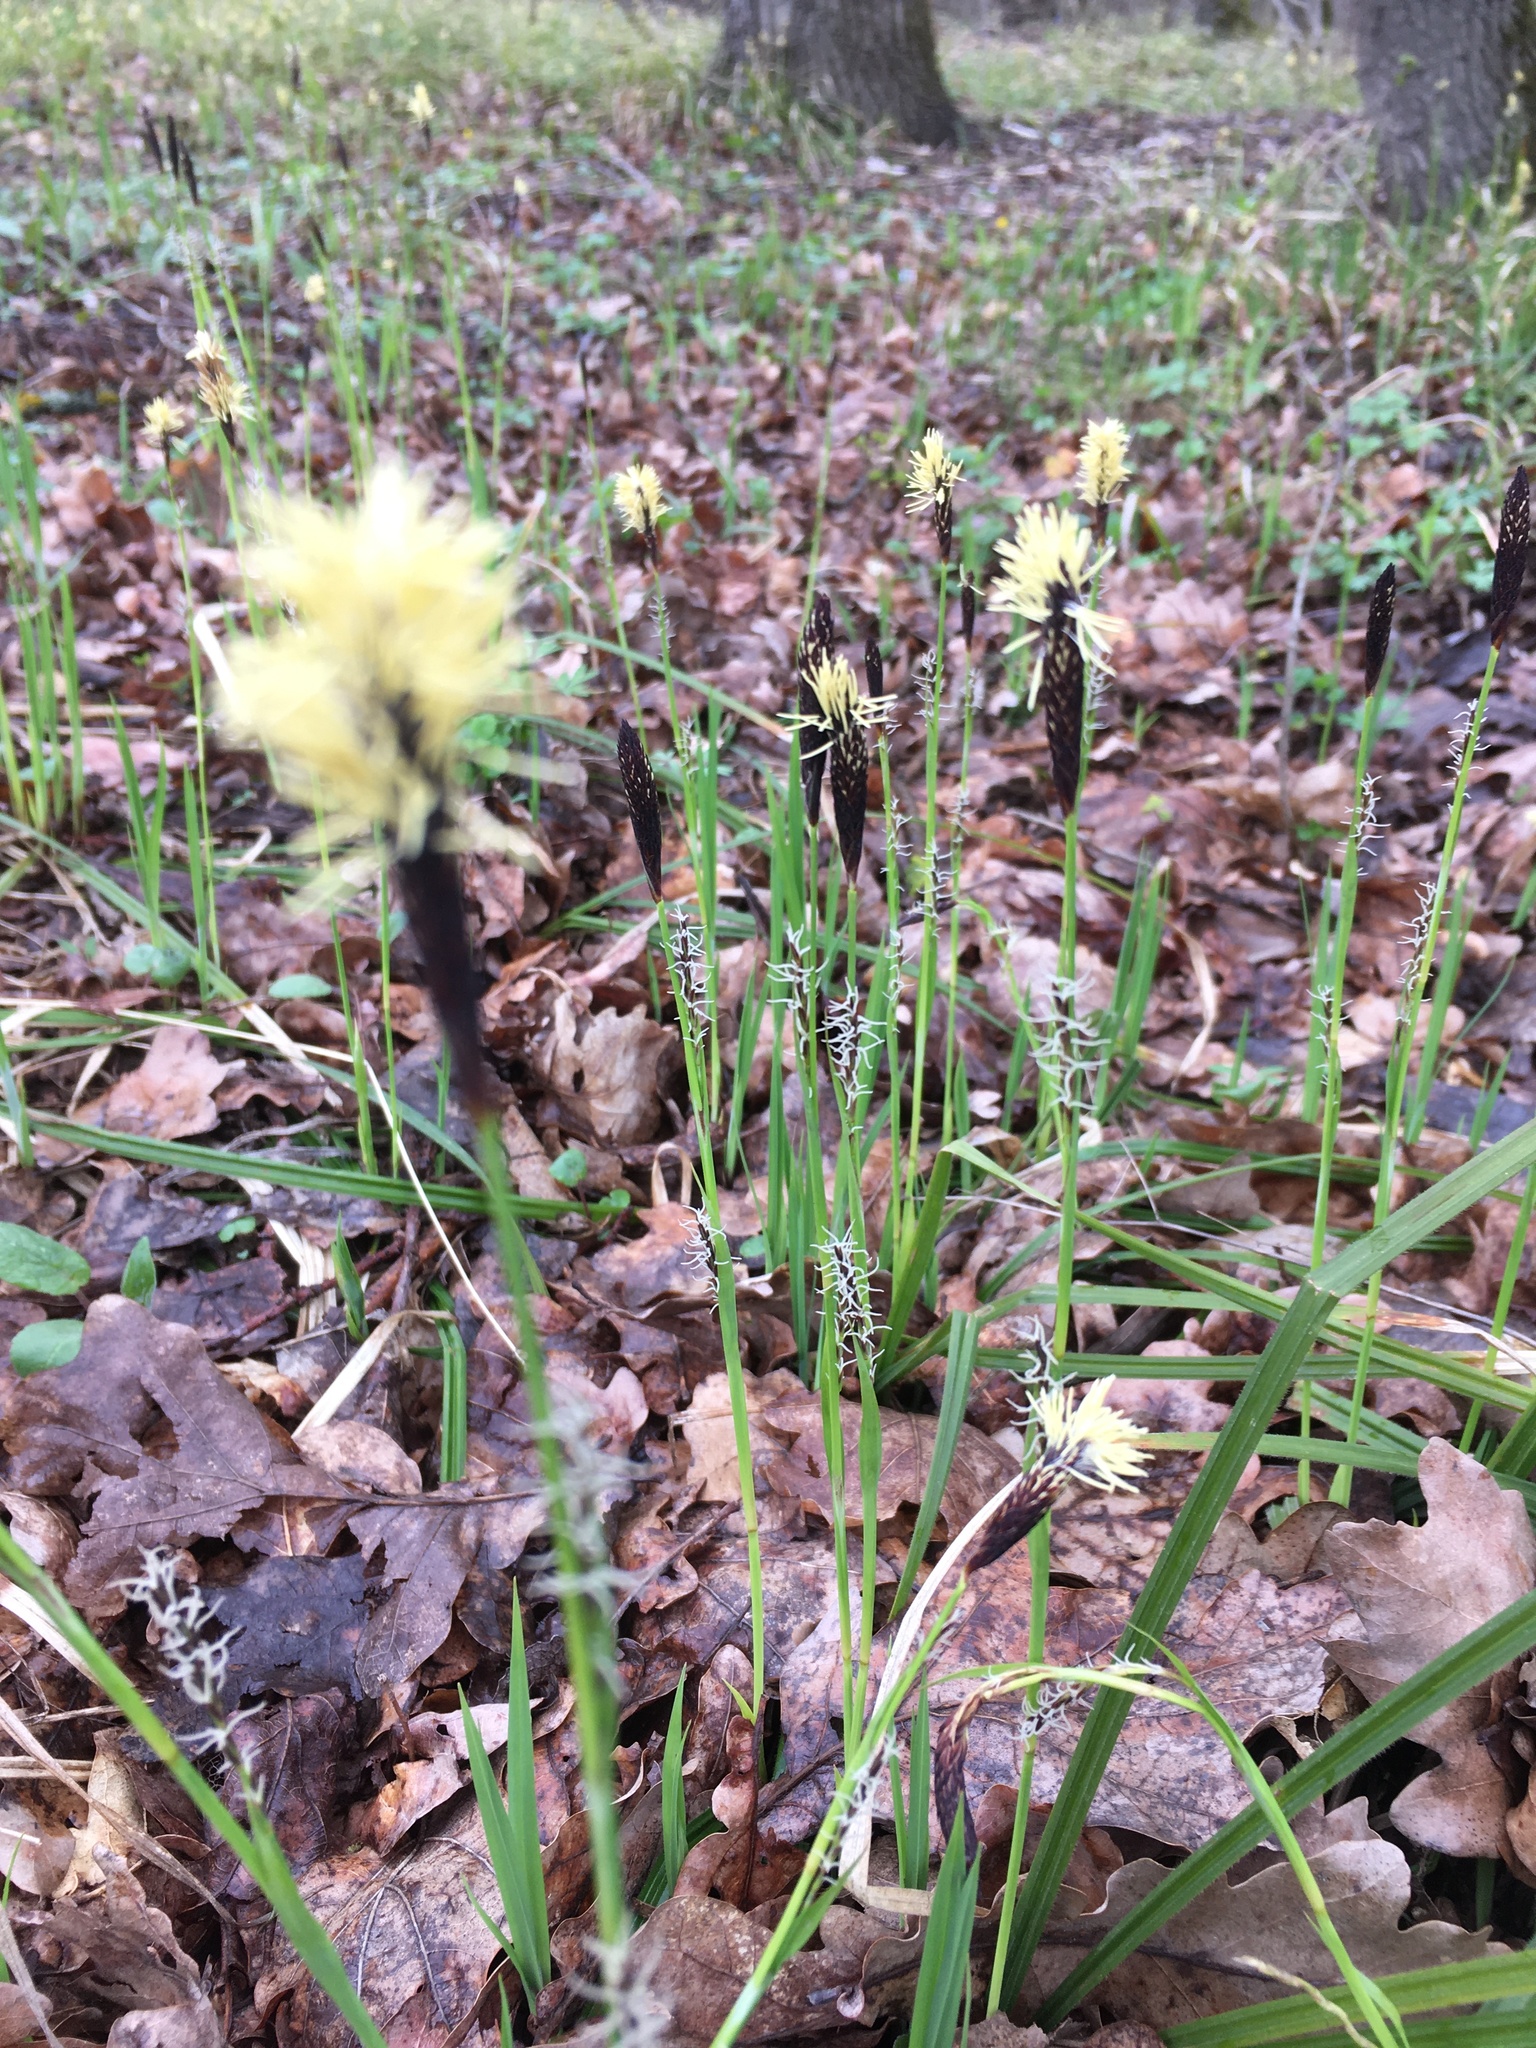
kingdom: Plantae
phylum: Tracheophyta
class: Liliopsida
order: Poales
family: Cyperaceae
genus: Carex
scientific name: Carex pilosa
